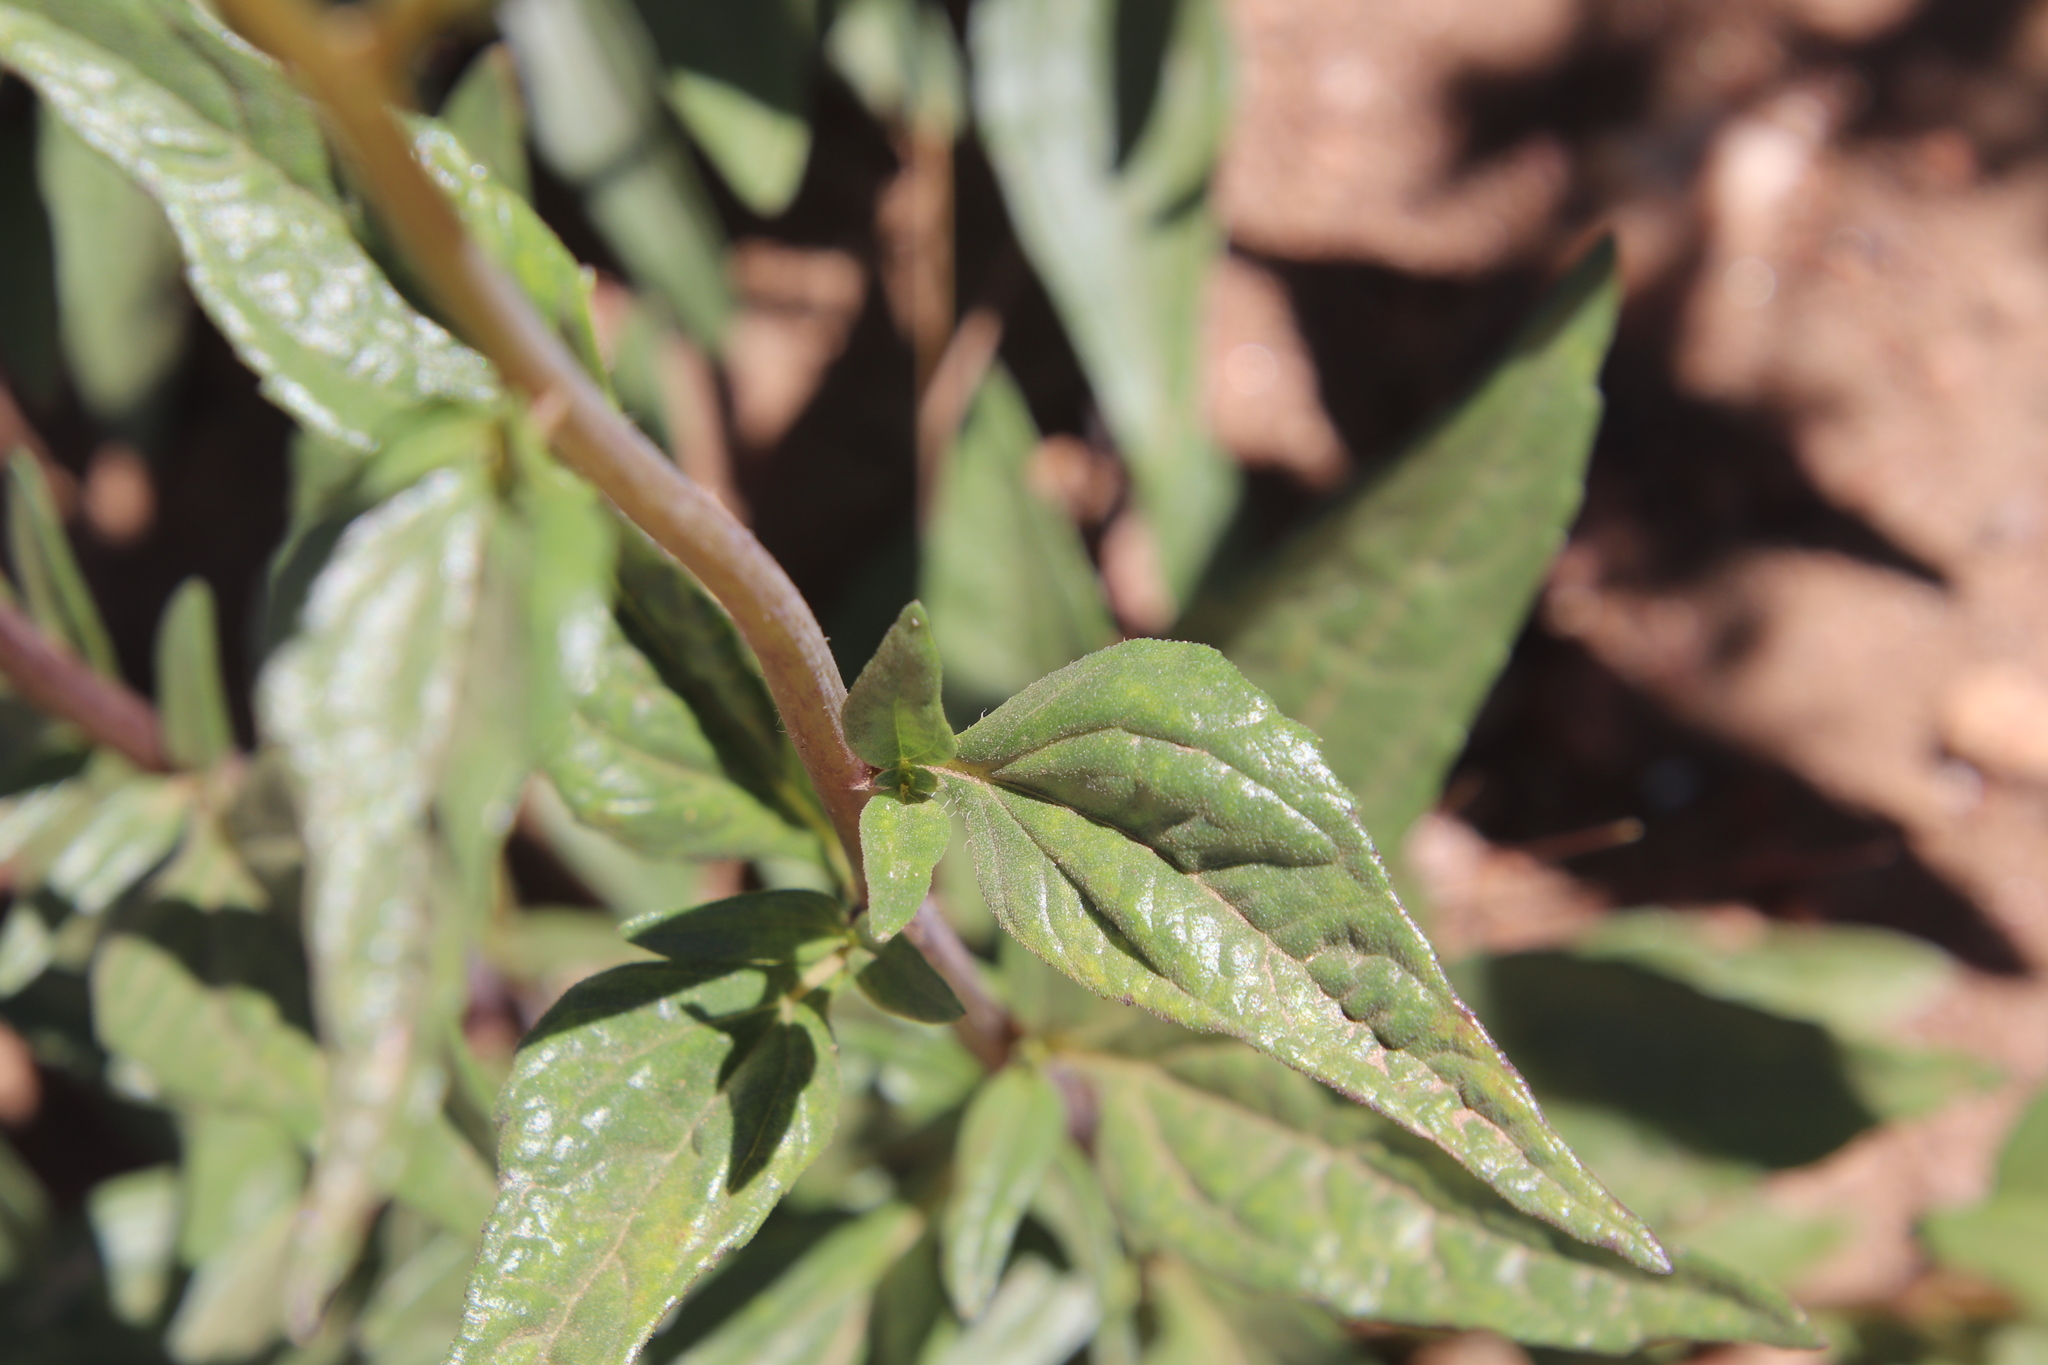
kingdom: Plantae
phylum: Tracheophyta
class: Magnoliopsida
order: Asterales
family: Asteraceae
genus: Helianthus
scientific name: Helianthus gracilentus
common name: Slender sunflower
